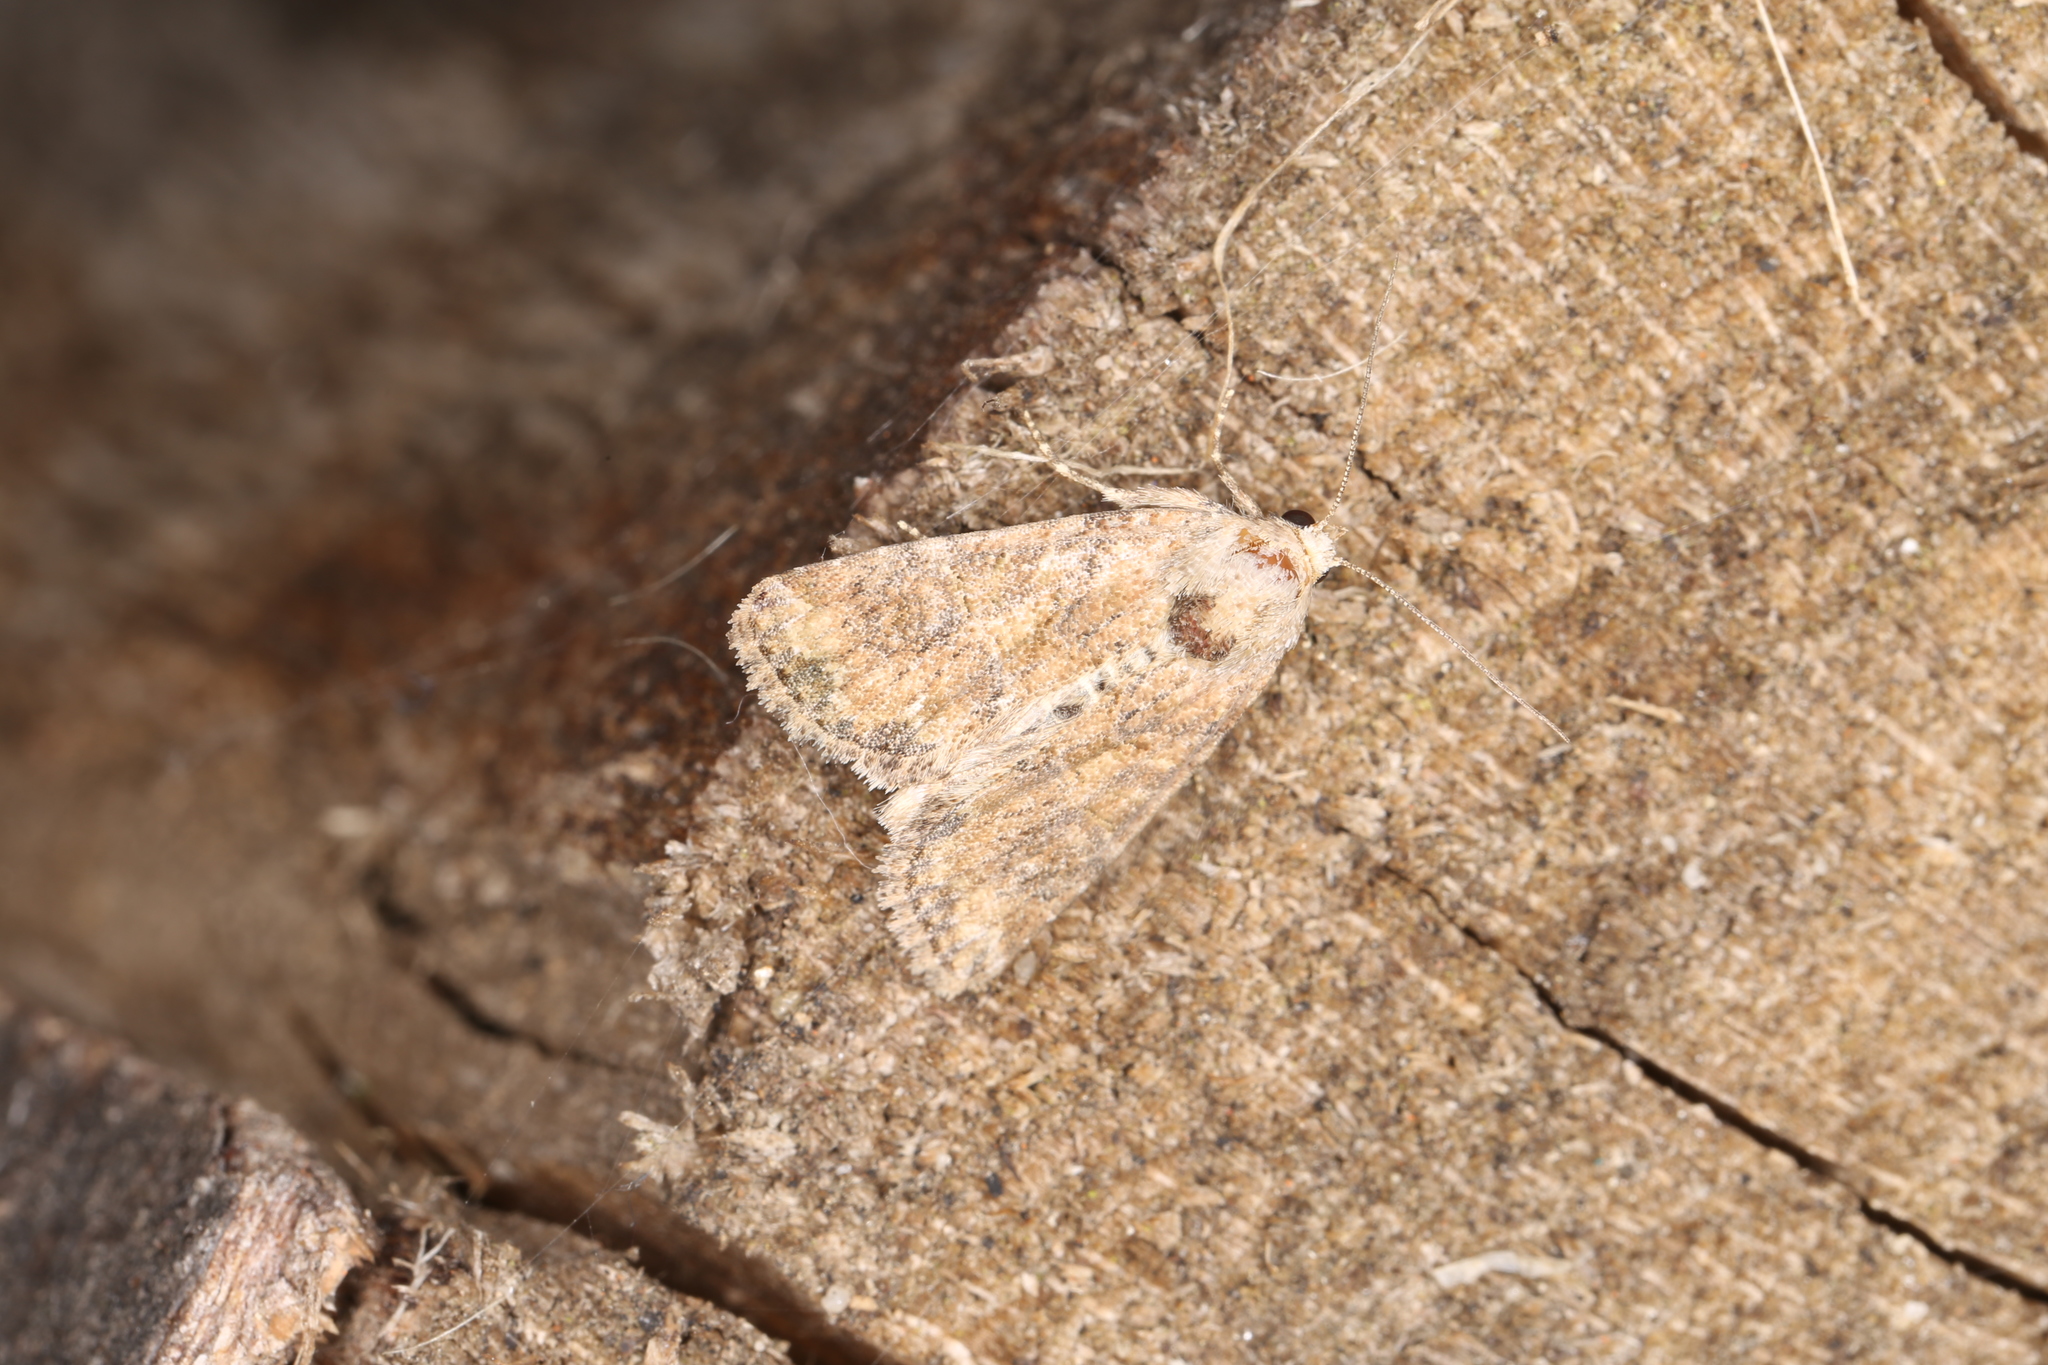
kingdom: Animalia
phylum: Arthropoda
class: Insecta
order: Lepidoptera
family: Noctuidae
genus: Mesoligia
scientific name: Mesoligia furuncula
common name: Cloaked minor
